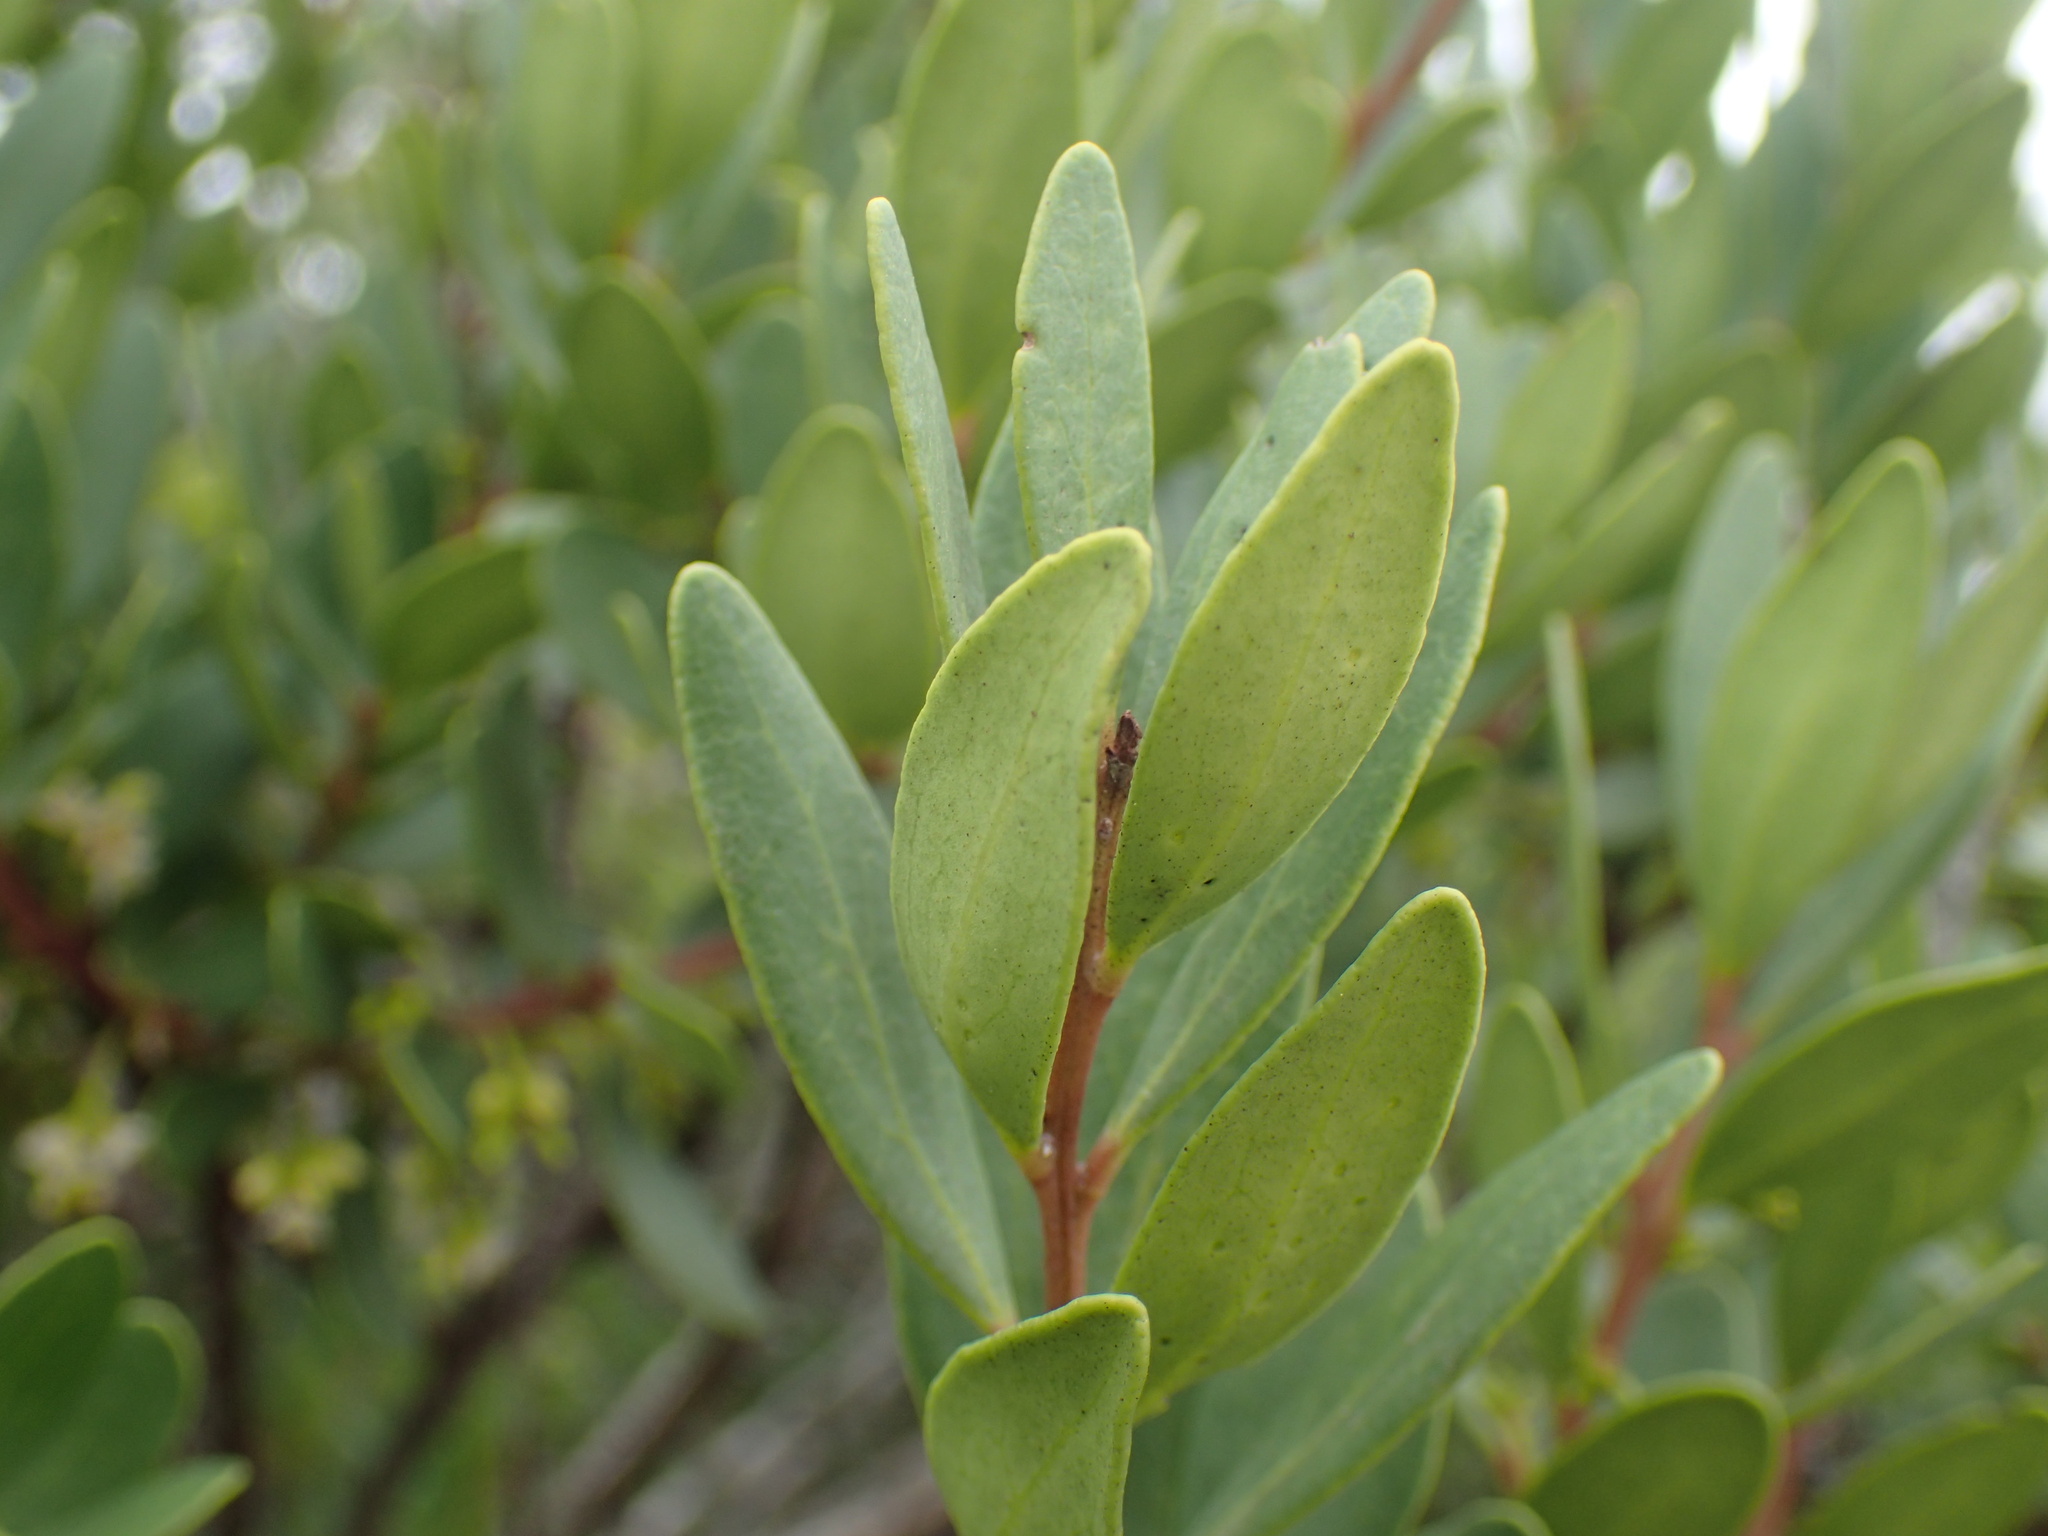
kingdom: Plantae
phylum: Tracheophyta
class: Magnoliopsida
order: Ericales
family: Ebenaceae
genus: Euclea
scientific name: Euclea racemosa
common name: Dune guarri
